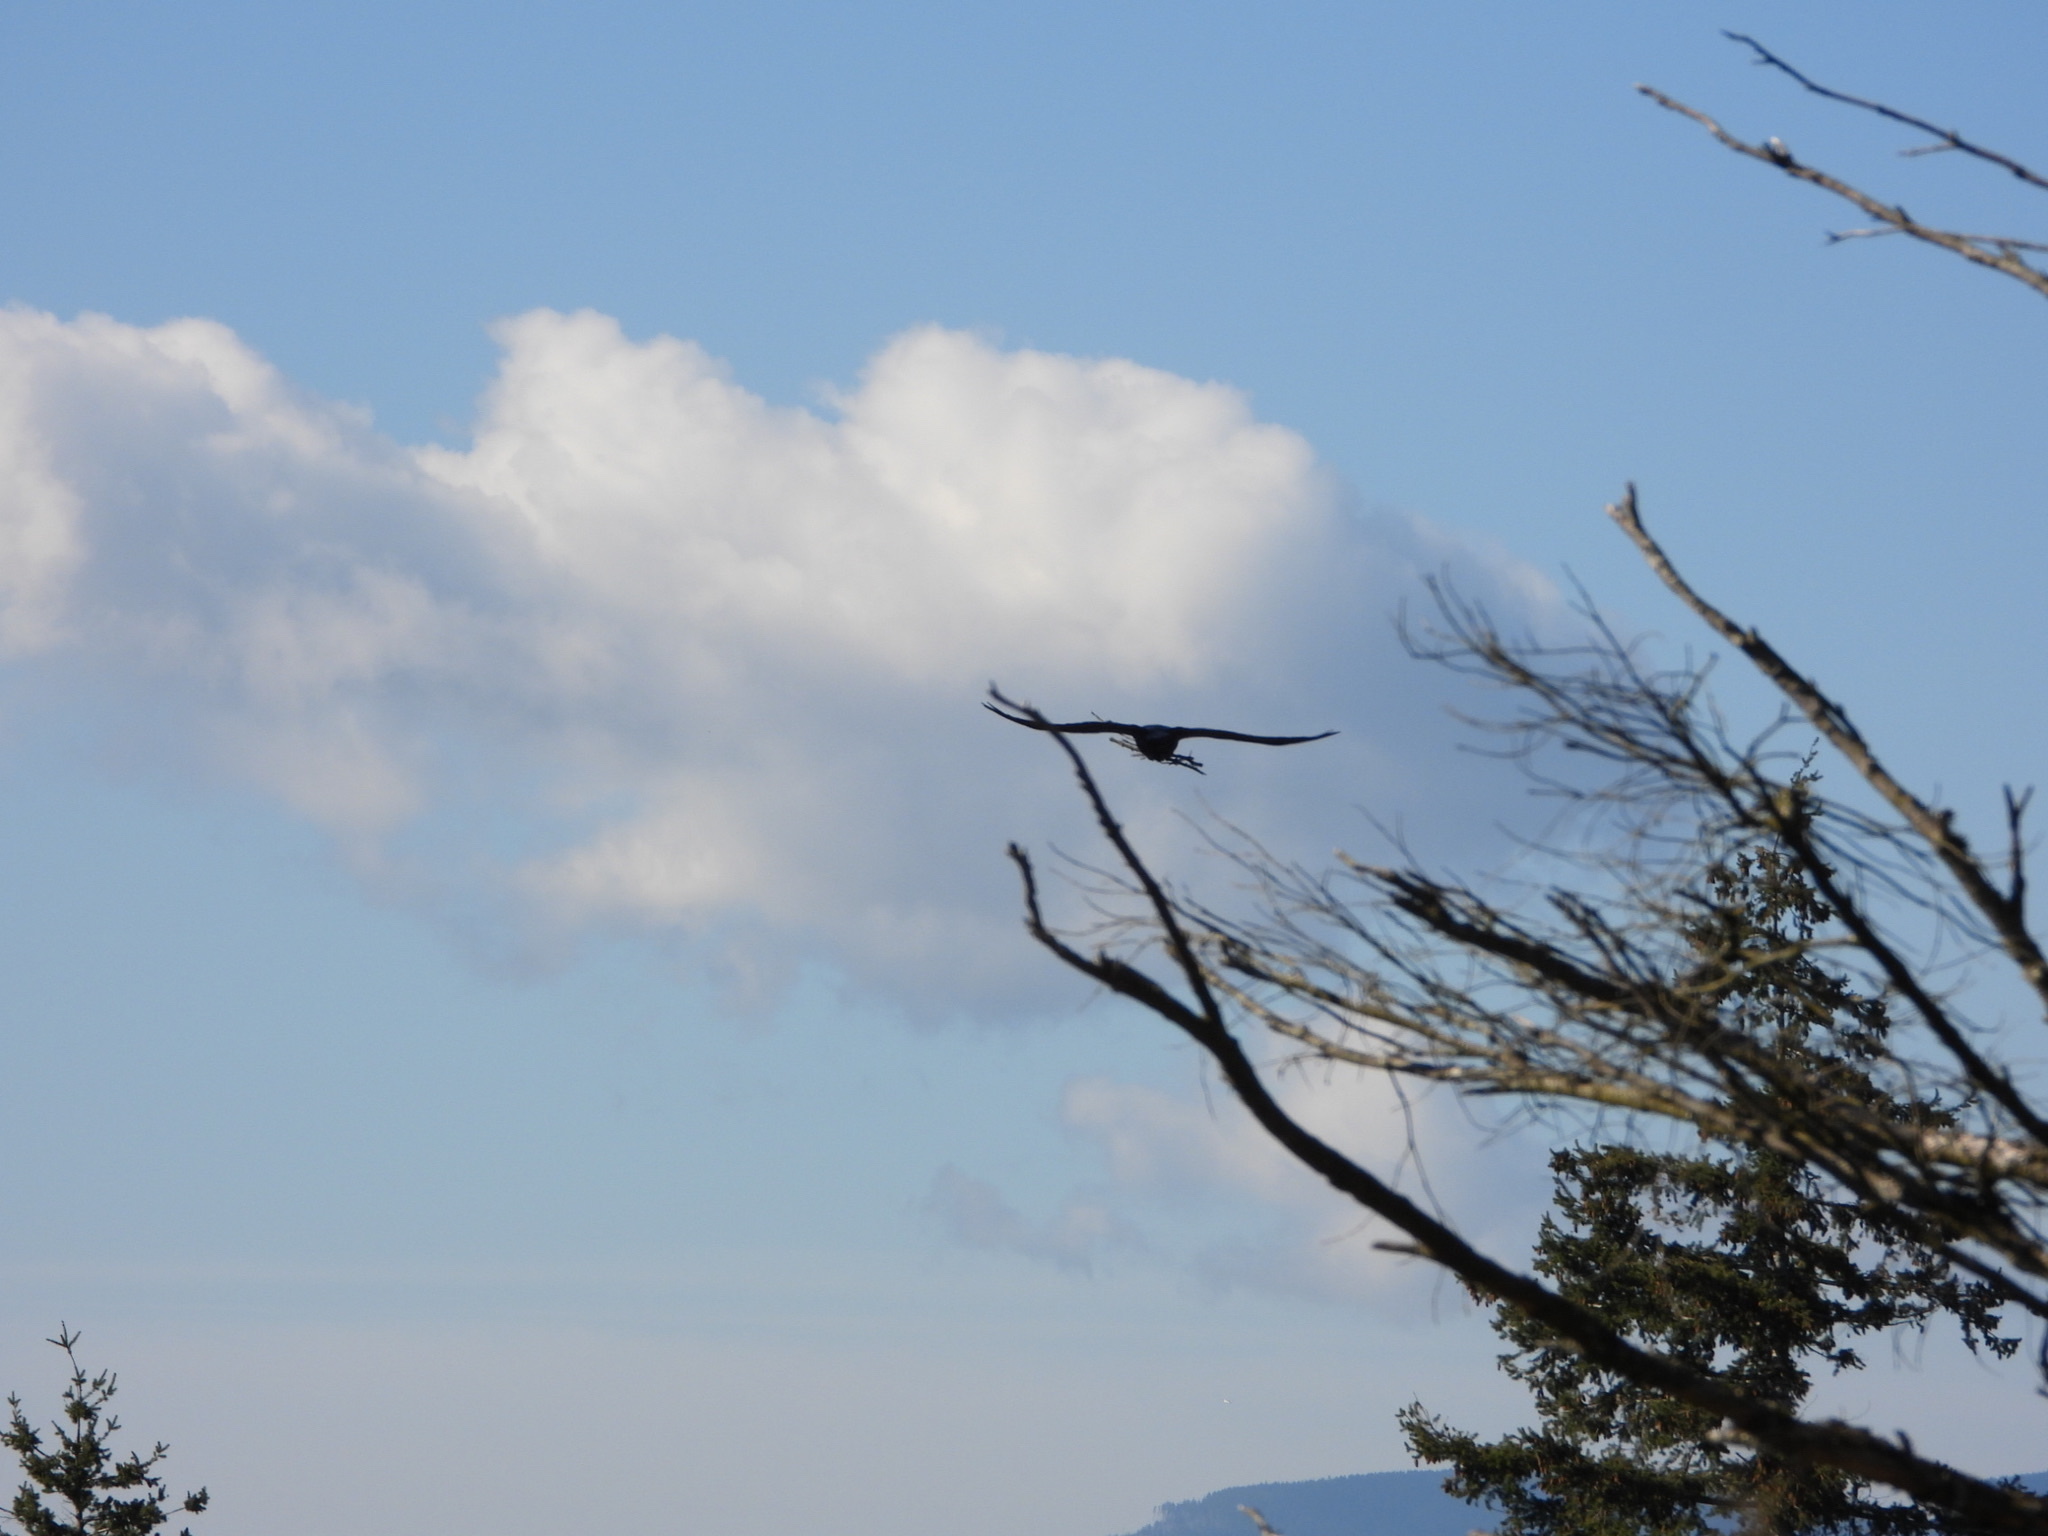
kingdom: Animalia
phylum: Chordata
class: Aves
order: Passeriformes
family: Corvidae
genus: Corvus
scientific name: Corvus corax
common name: Common raven
